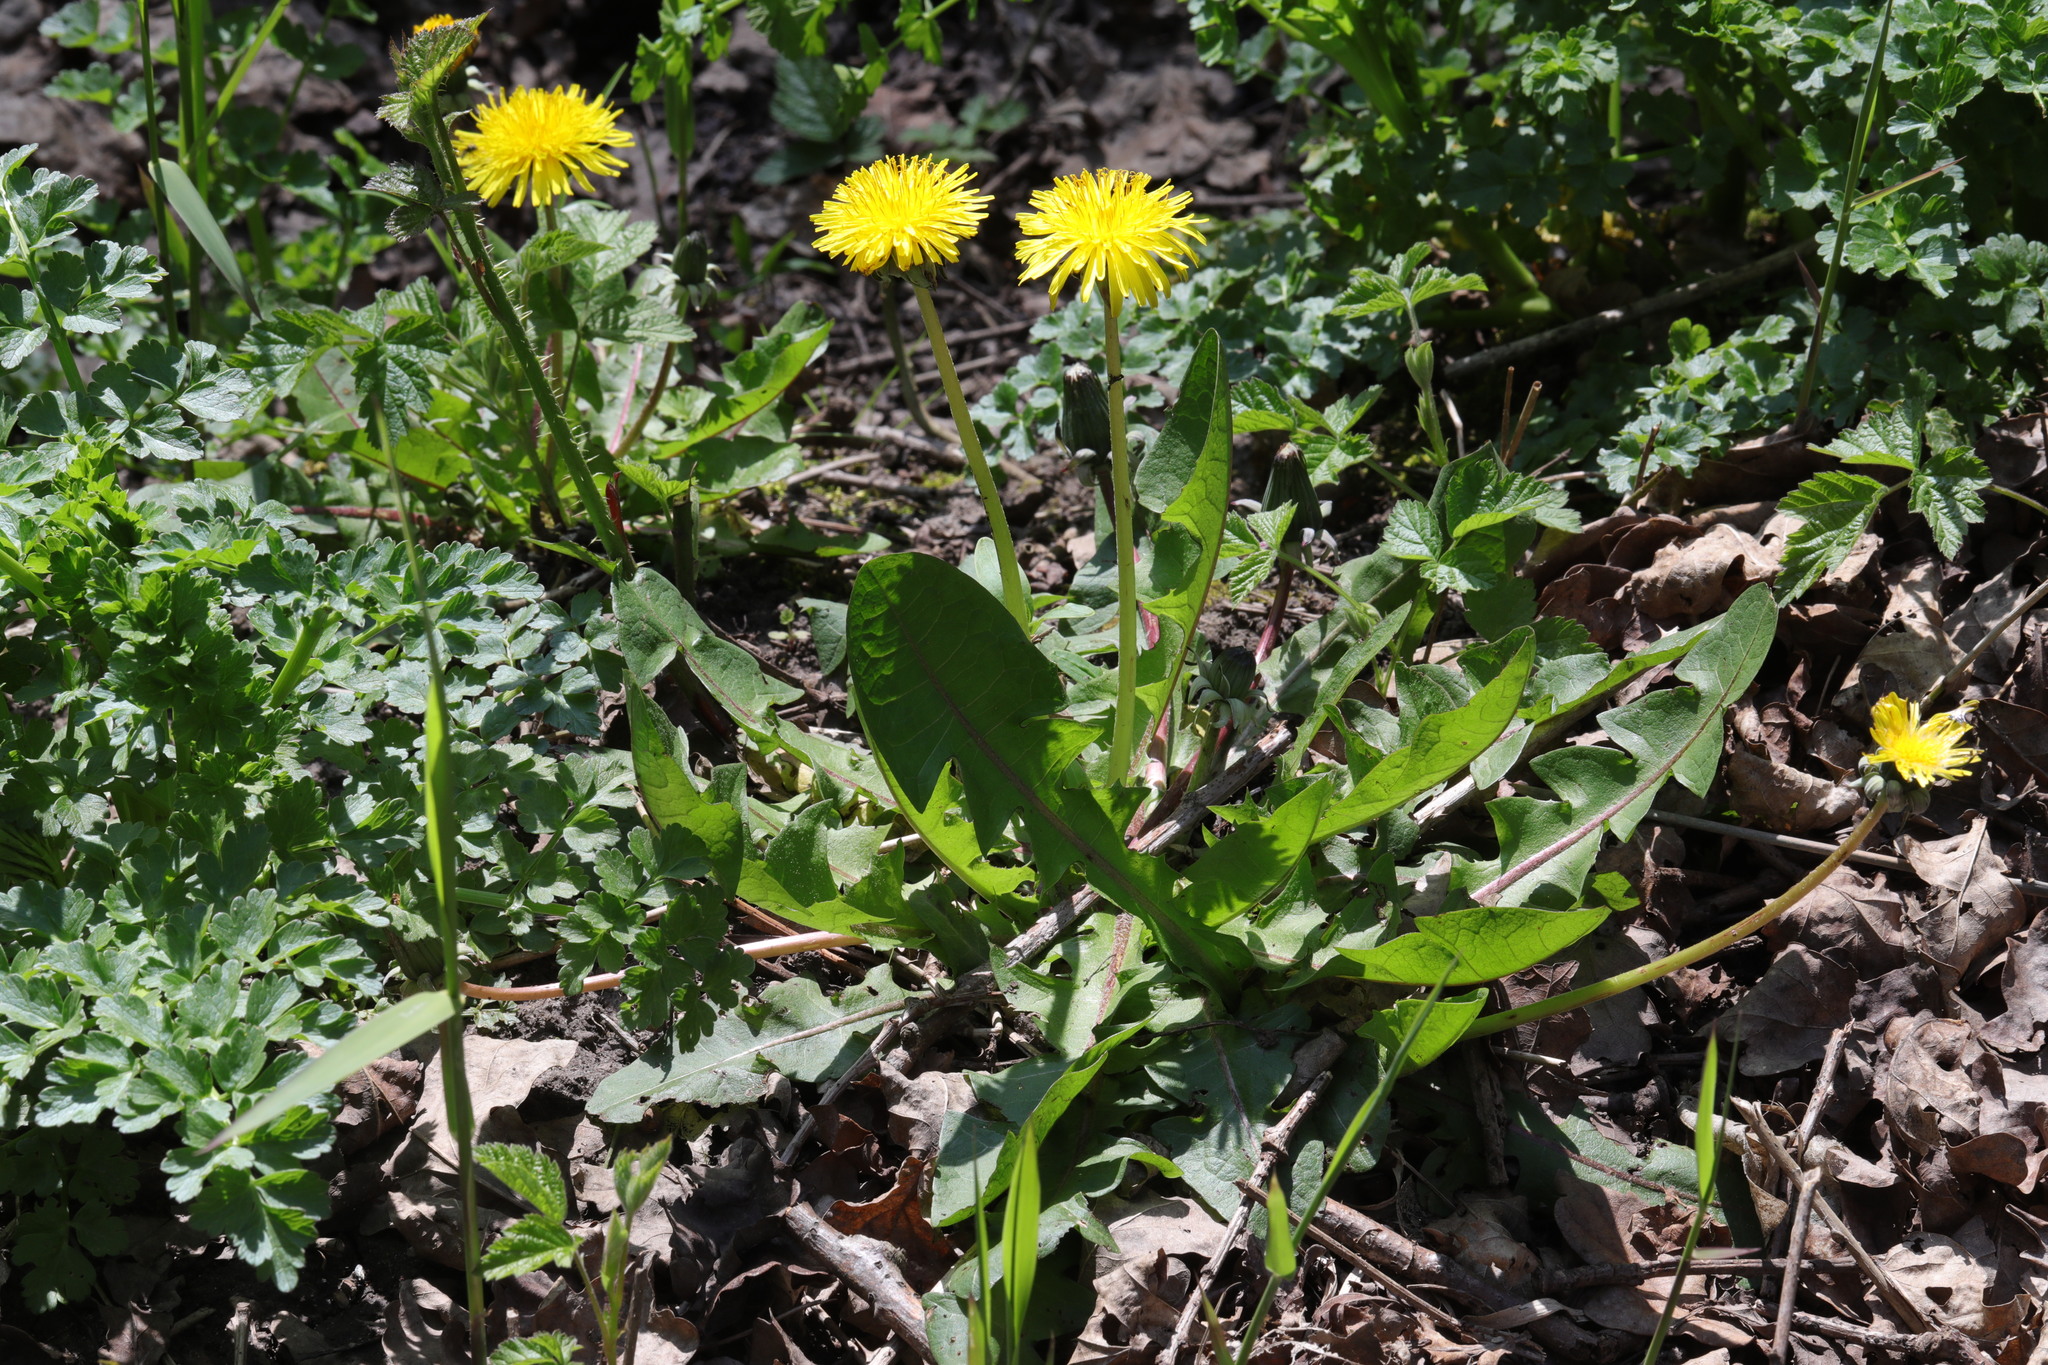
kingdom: Plantae
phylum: Tracheophyta
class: Magnoliopsida
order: Asterales
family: Asteraceae
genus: Taraxacum
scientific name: Taraxacum officinale
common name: Common dandelion
